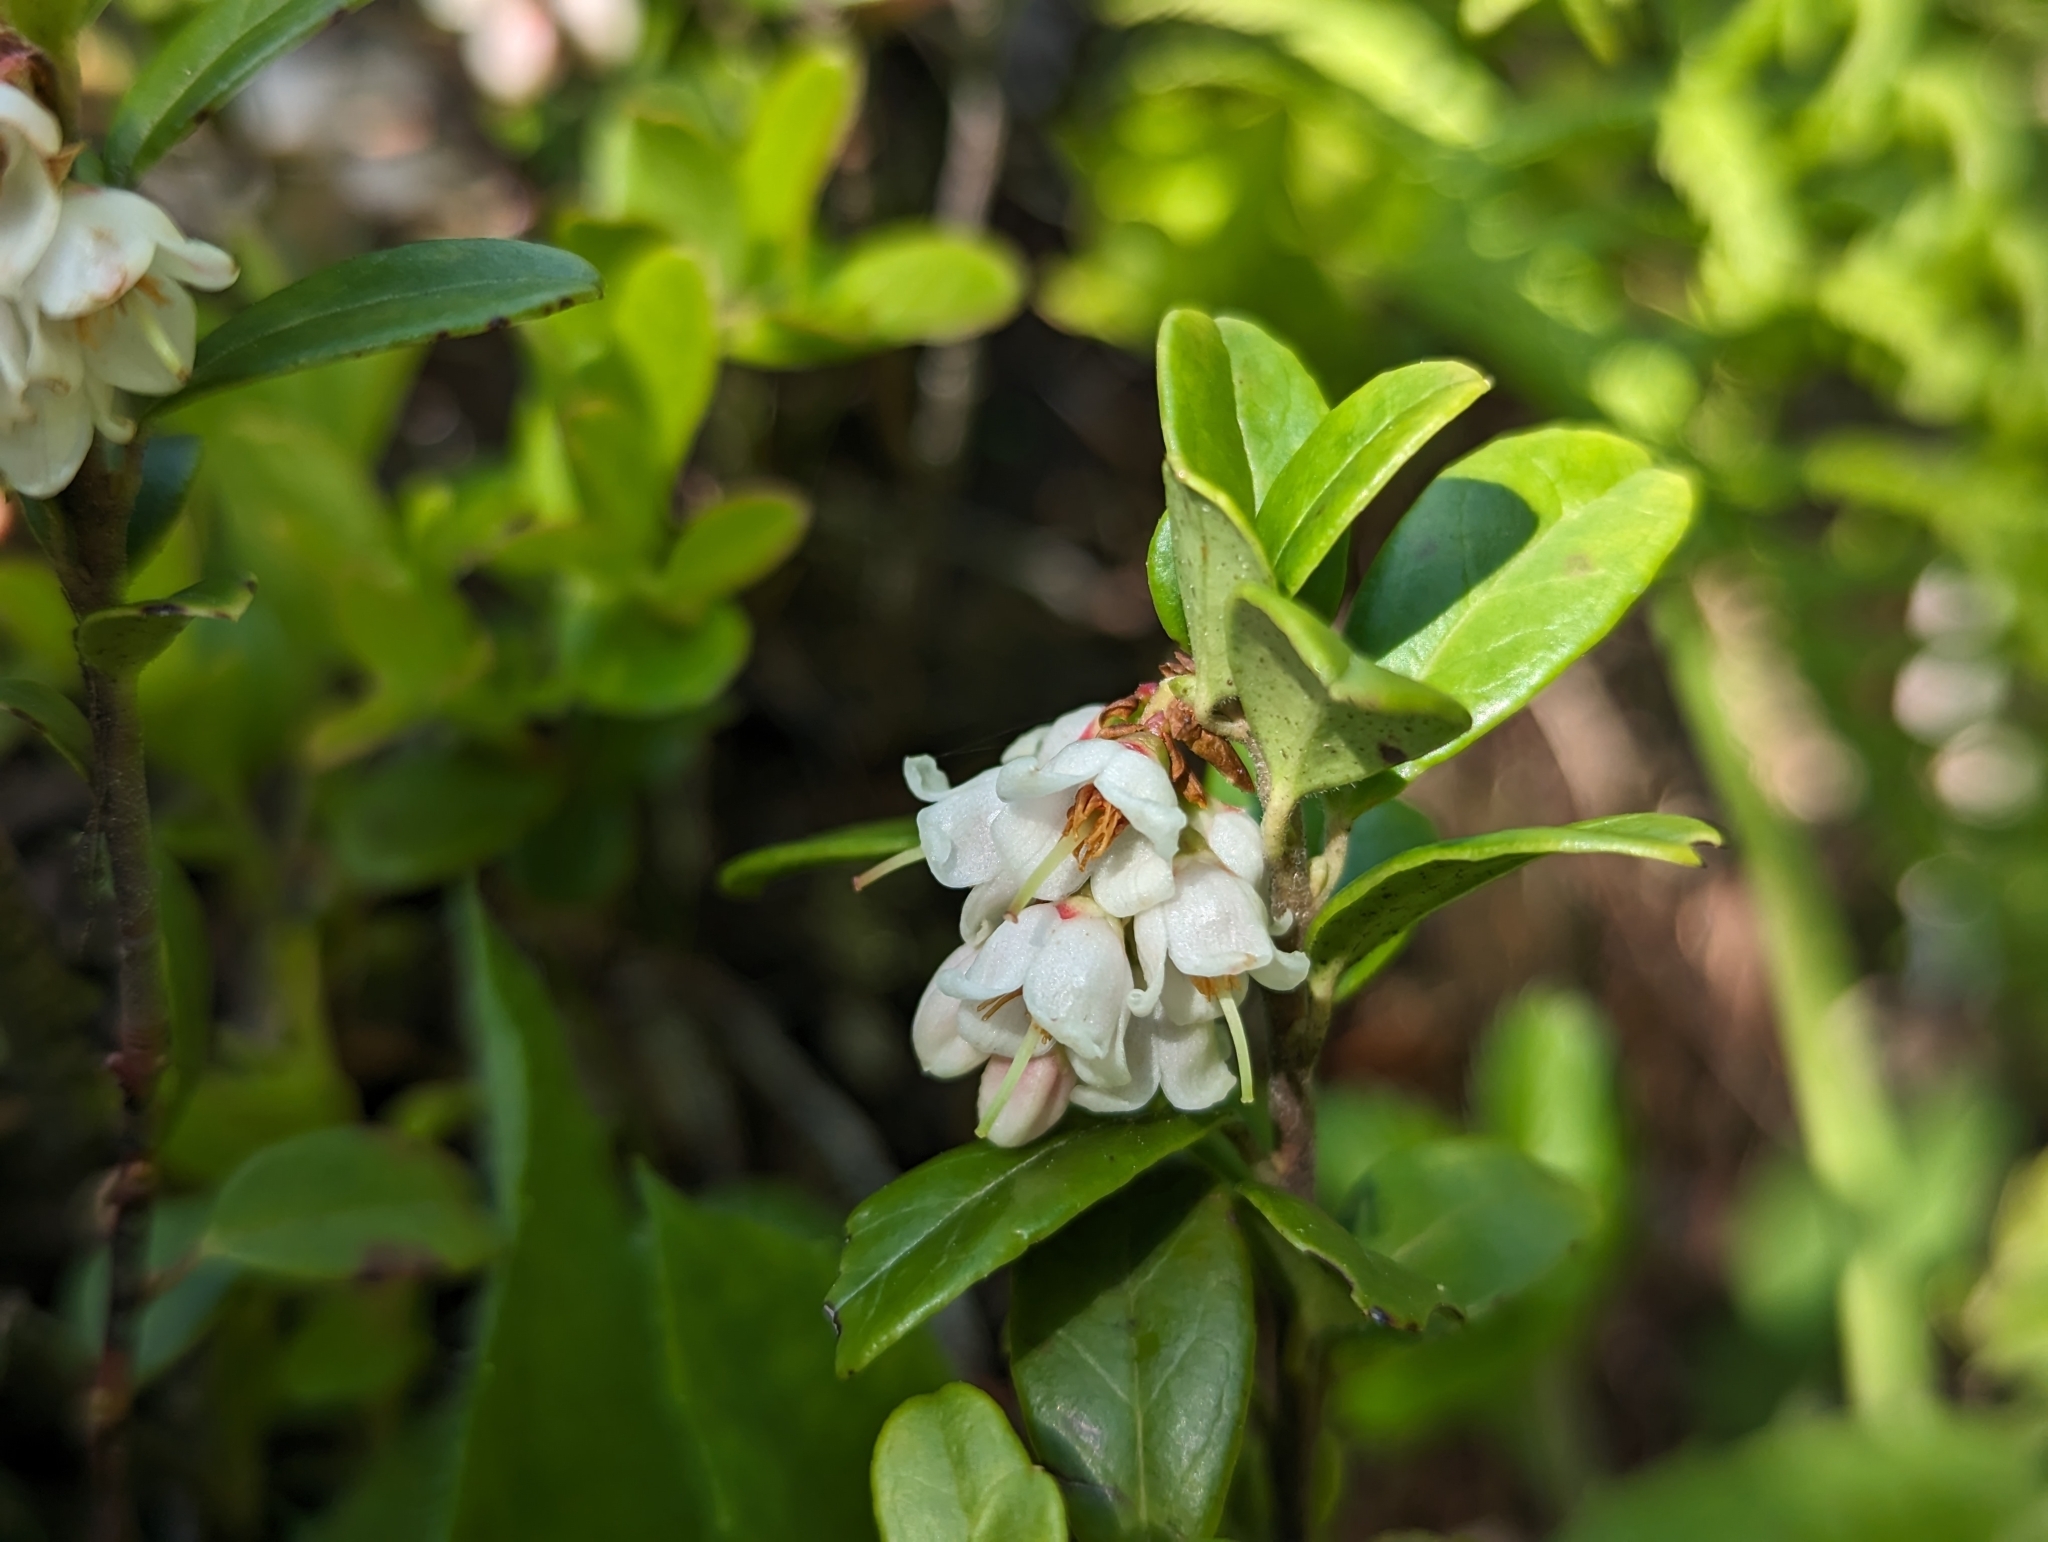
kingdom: Plantae
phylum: Tracheophyta
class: Magnoliopsida
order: Ericales
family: Ericaceae
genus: Vaccinium
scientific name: Vaccinium vitis-idaea
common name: Cowberry
